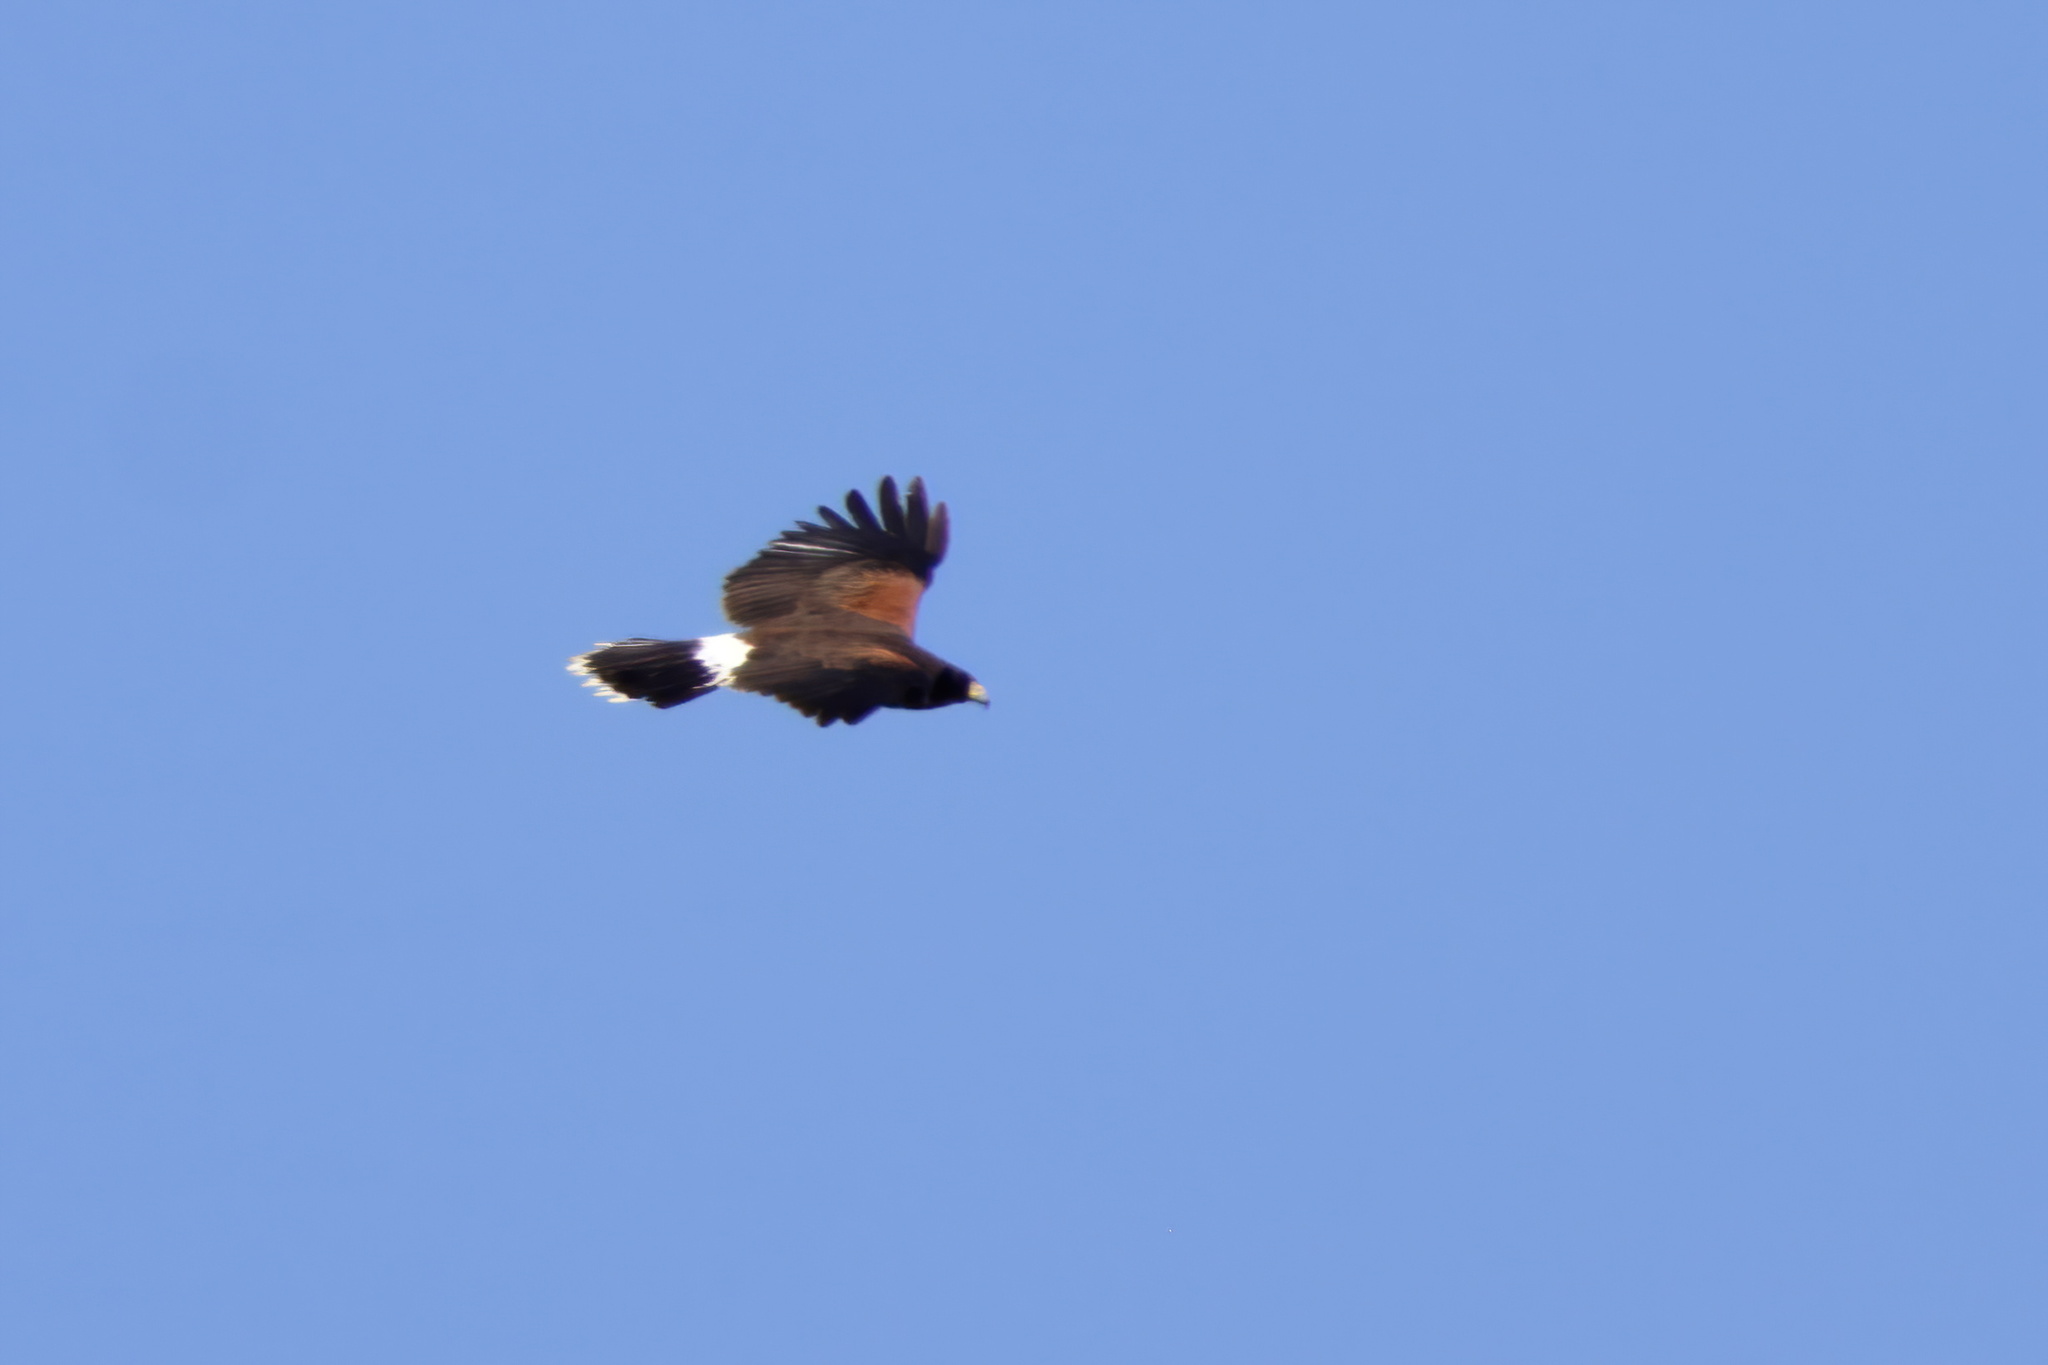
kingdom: Animalia
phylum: Chordata
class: Aves
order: Accipitriformes
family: Accipitridae
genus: Parabuteo
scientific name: Parabuteo unicinctus
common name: Harris's hawk
